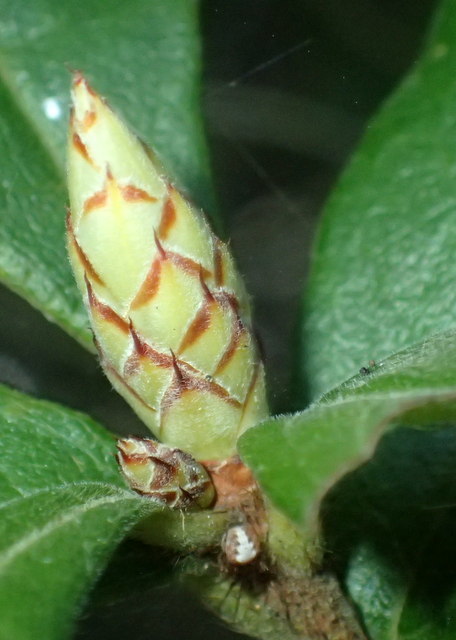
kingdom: Plantae
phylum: Tracheophyta
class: Magnoliopsida
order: Ericales
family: Ericaceae
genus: Rhododendron
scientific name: Rhododendron serrulatum
